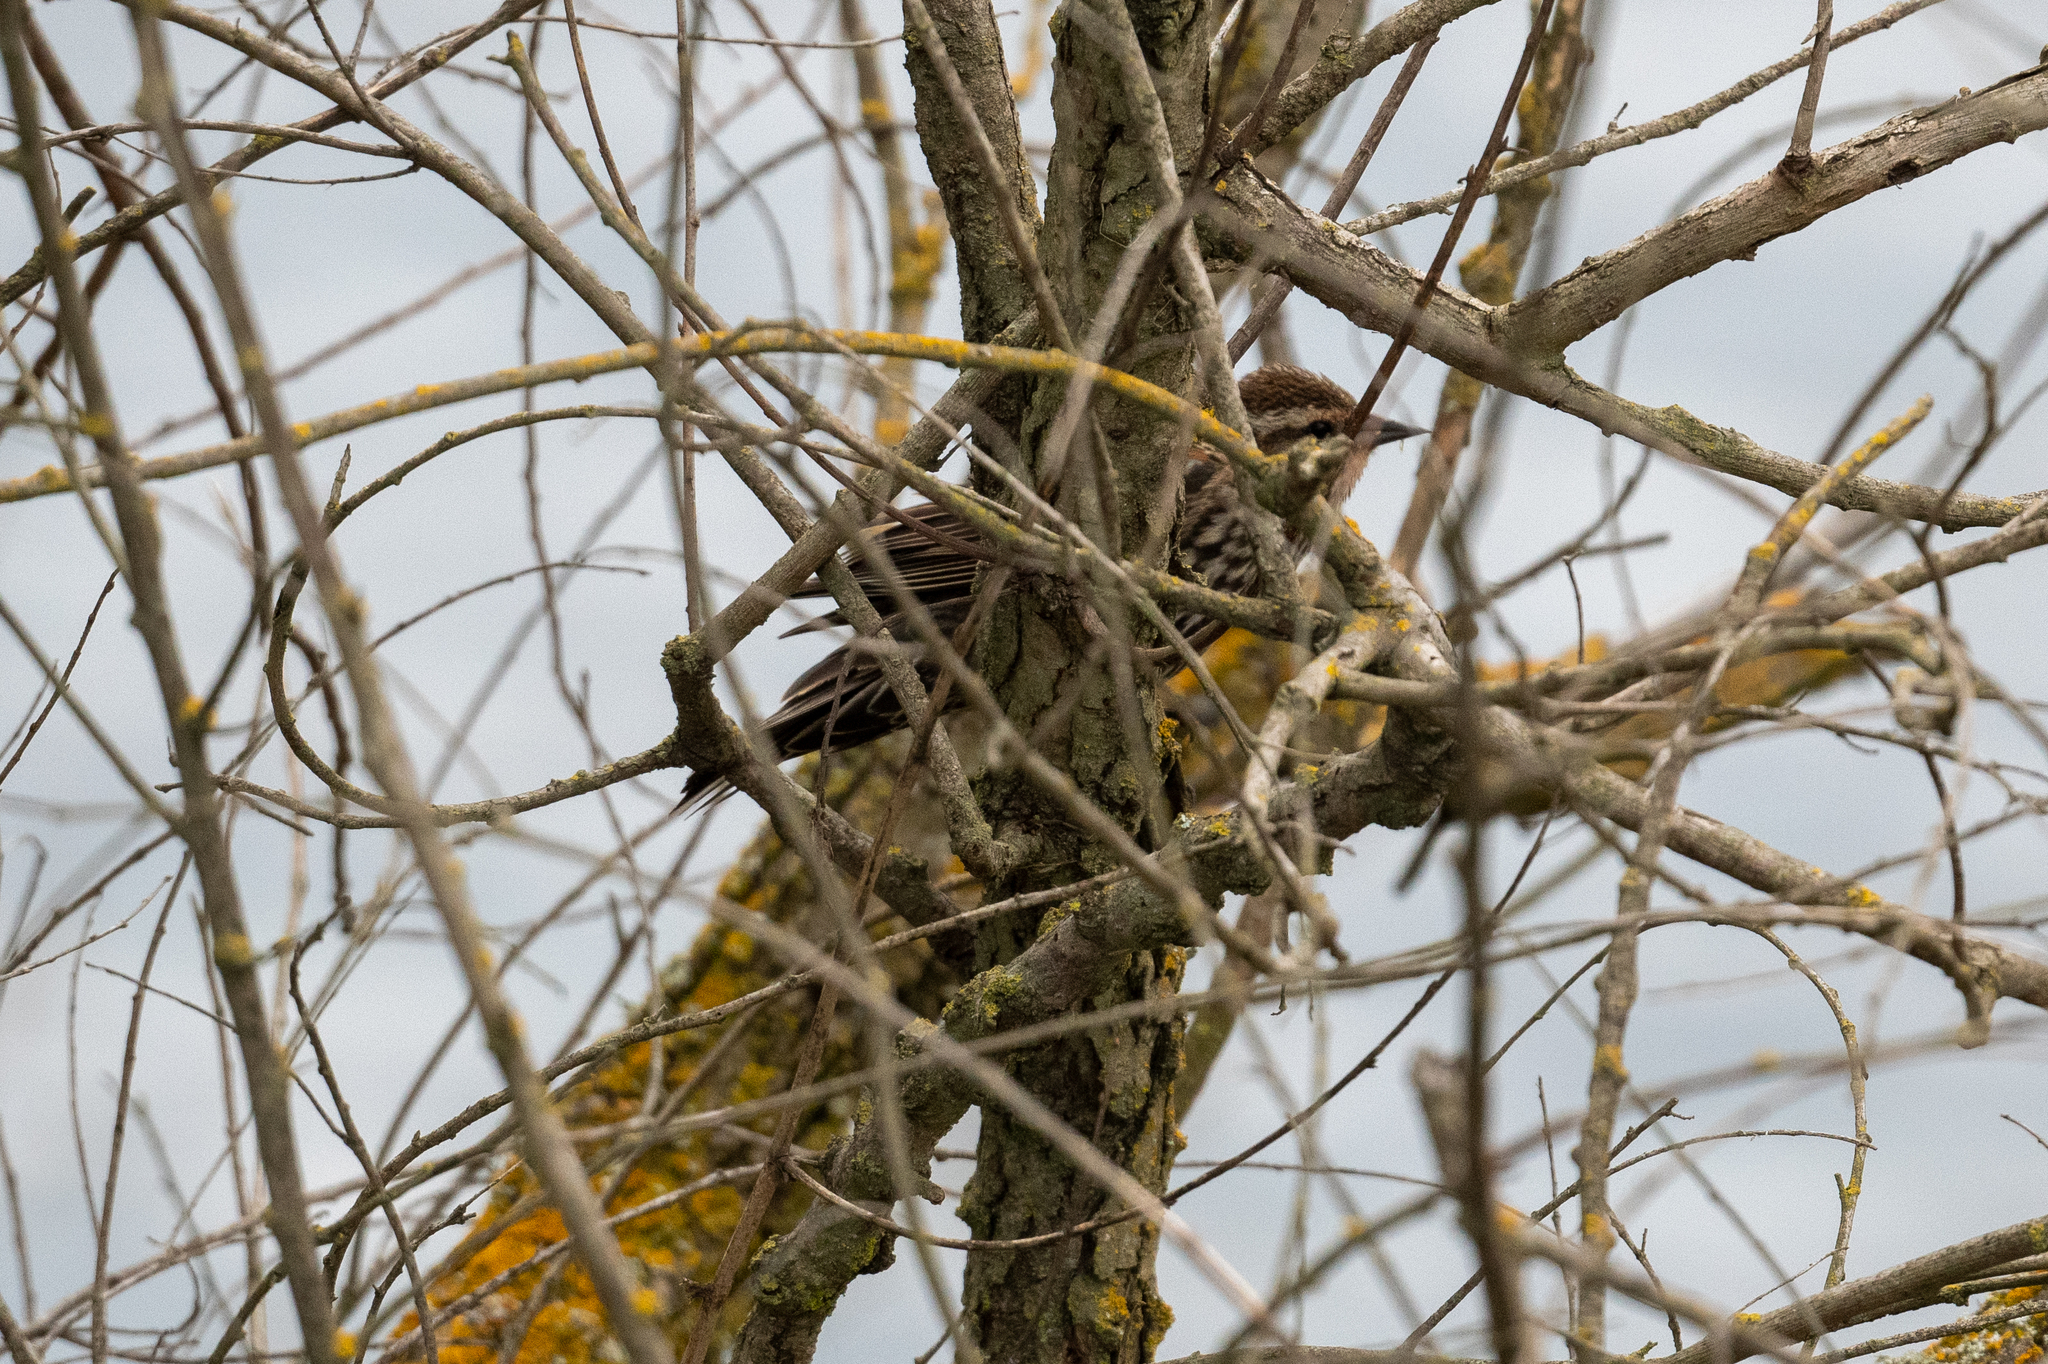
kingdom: Animalia
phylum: Chordata
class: Aves
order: Passeriformes
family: Icteridae
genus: Agelaius
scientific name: Agelaius phoeniceus
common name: Red-winged blackbird
